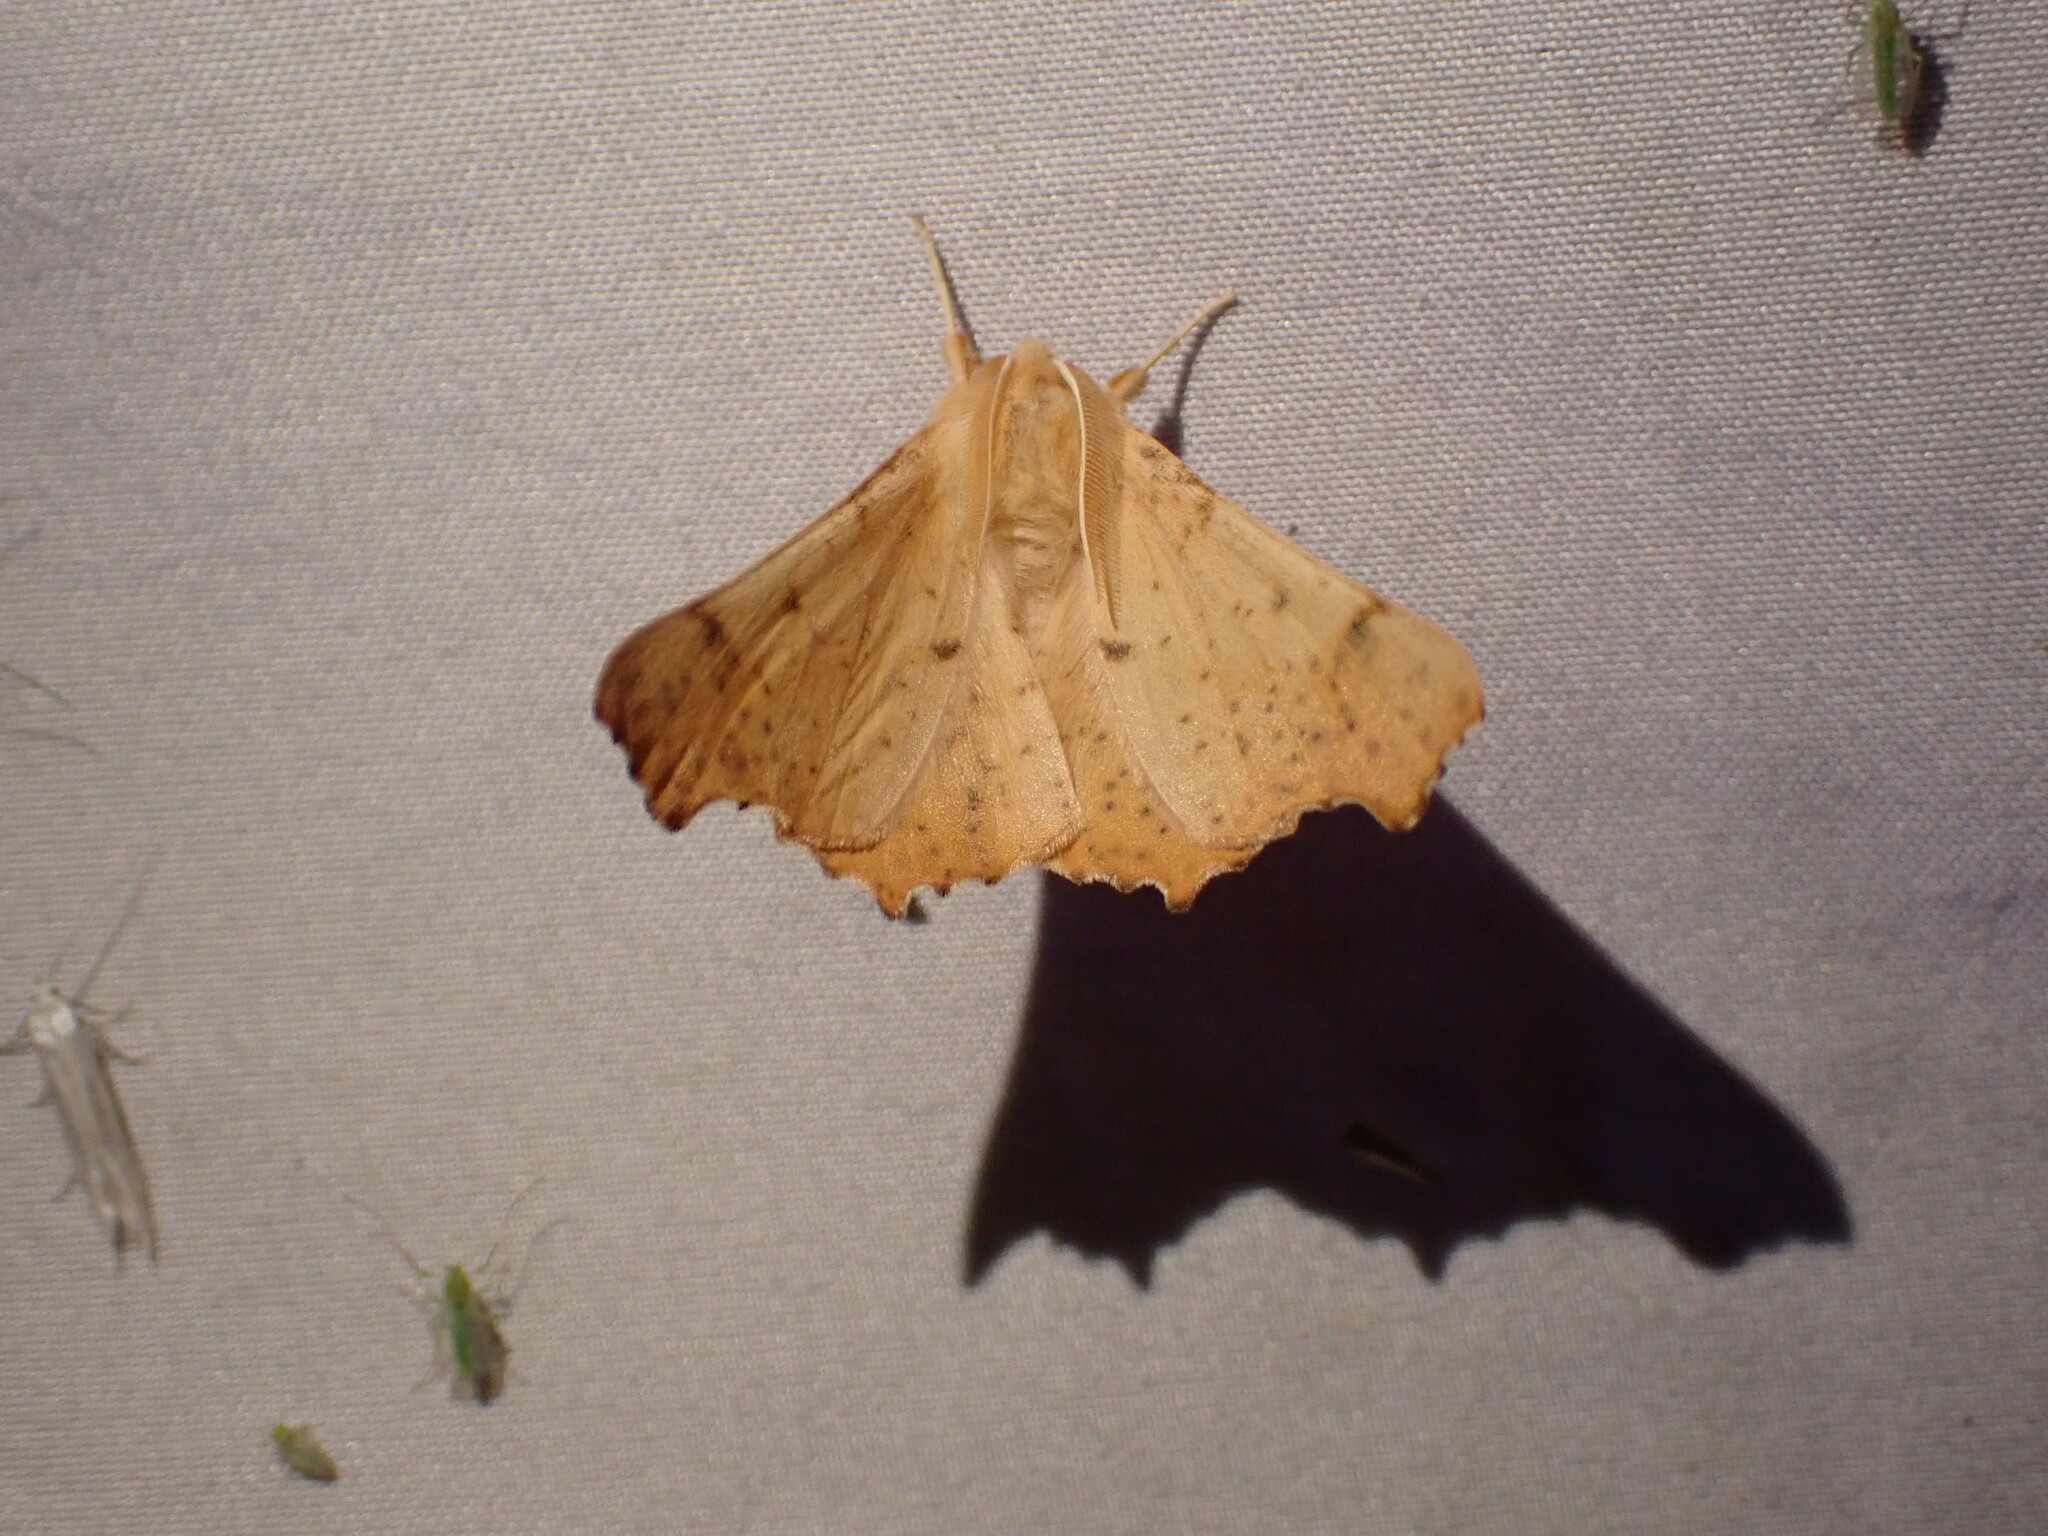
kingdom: Animalia
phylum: Arthropoda
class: Insecta
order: Lepidoptera
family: Geometridae
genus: Ennomos
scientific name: Ennomos magnaria
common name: Maple spanworm
